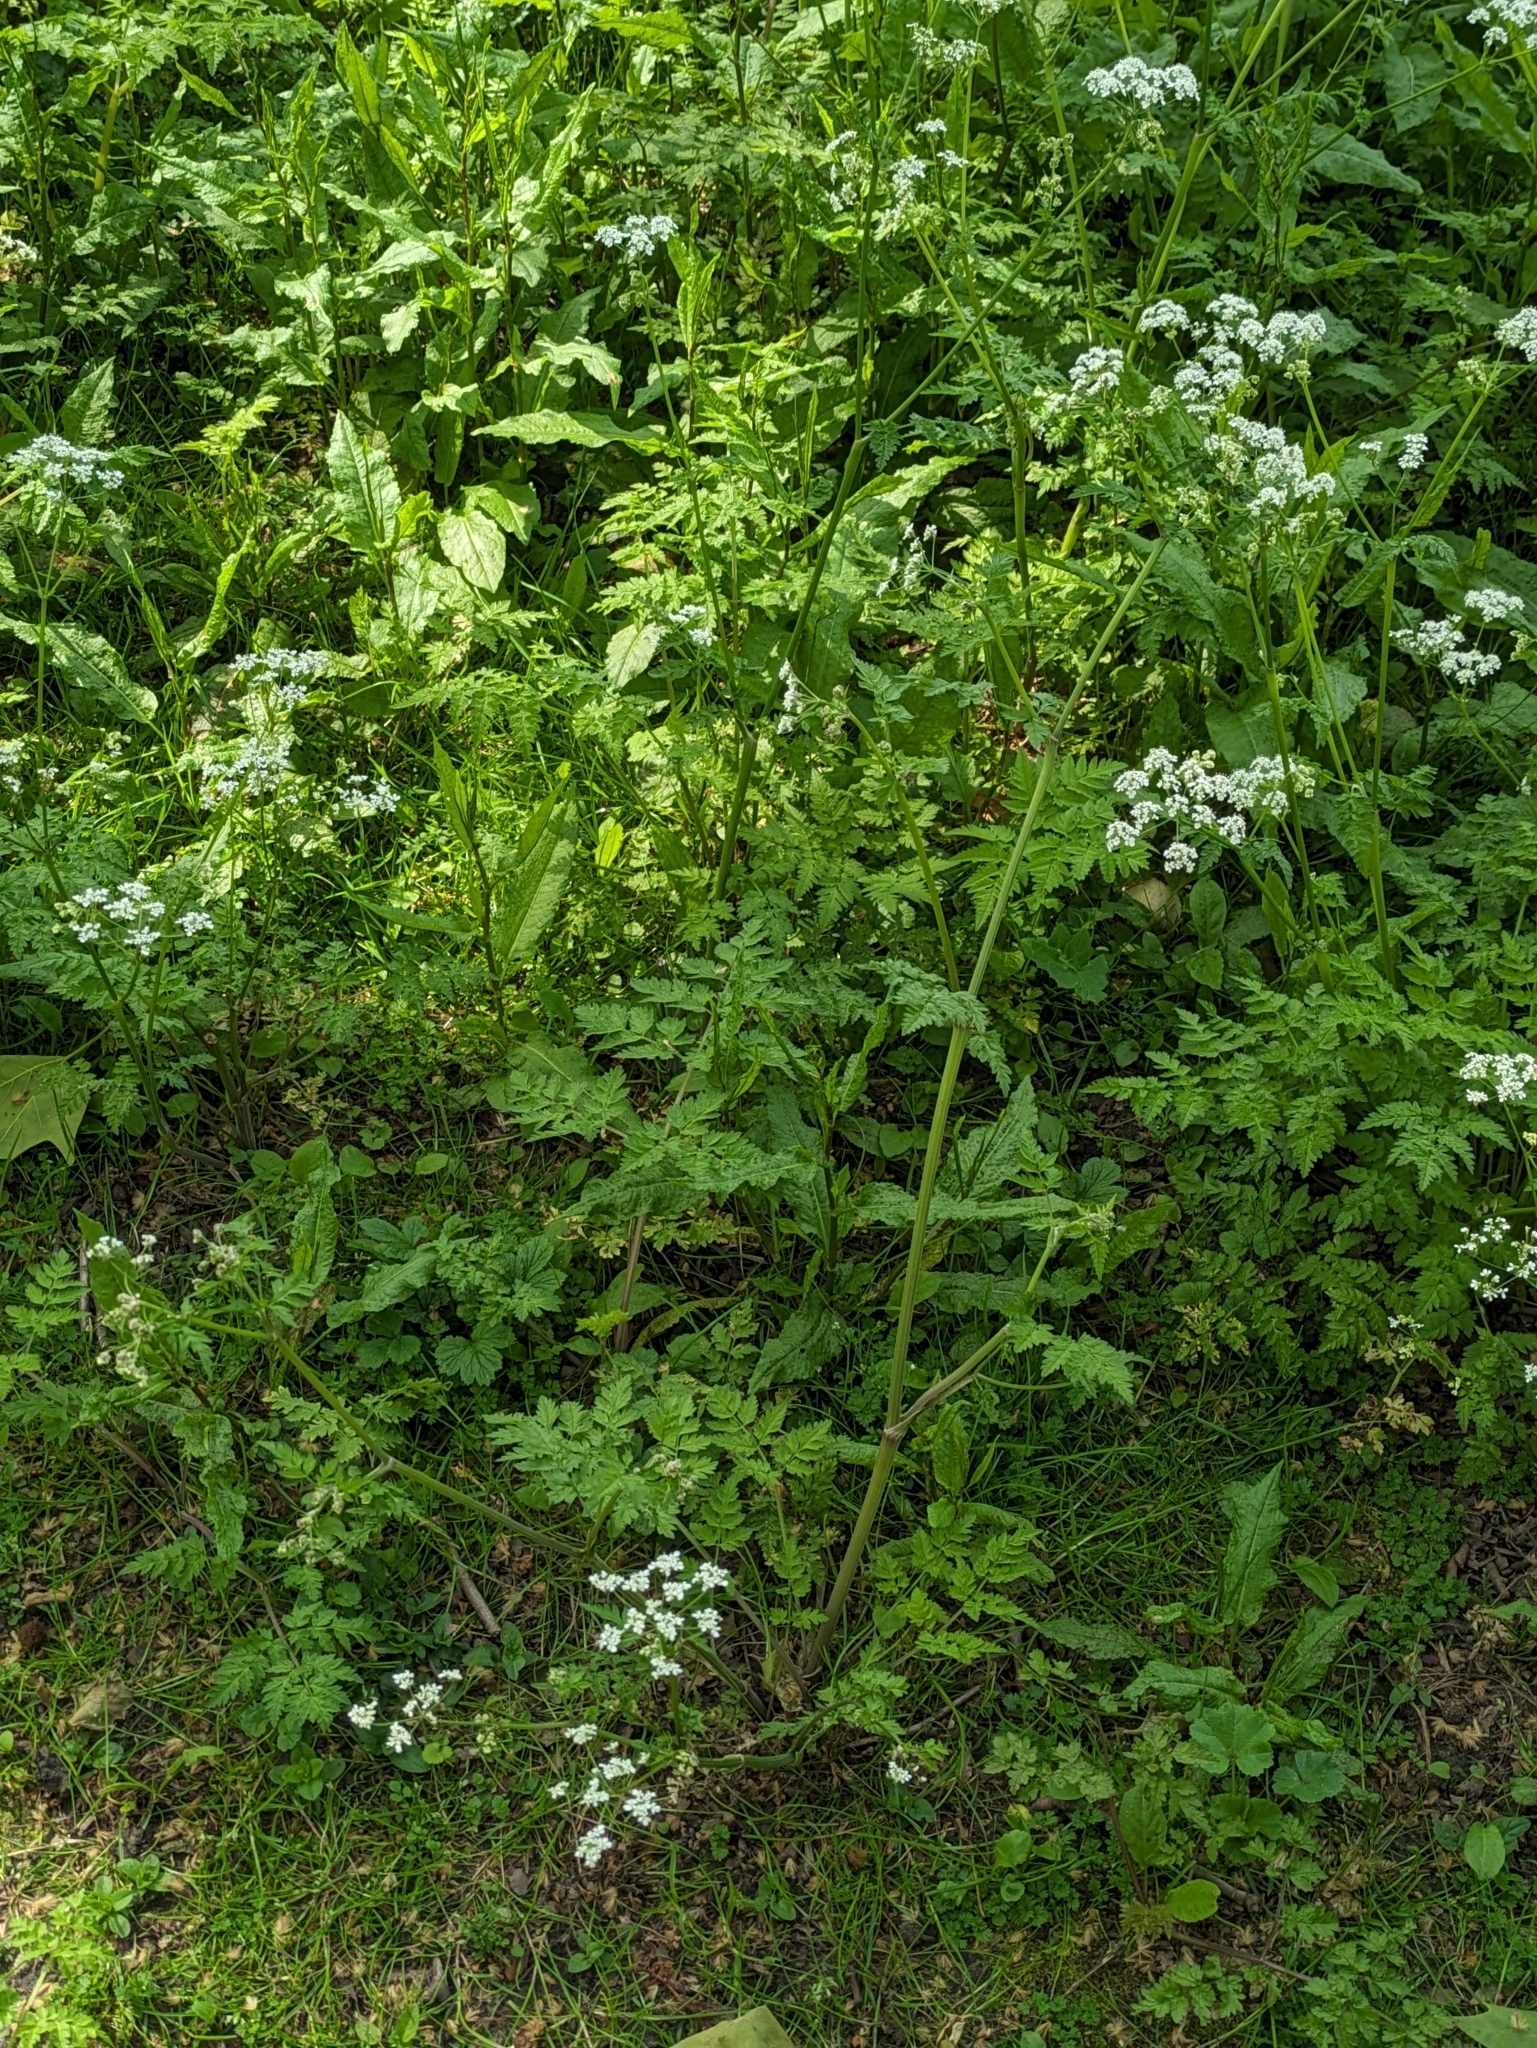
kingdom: Plantae
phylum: Tracheophyta
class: Magnoliopsida
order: Apiales
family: Apiaceae
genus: Anthriscus
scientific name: Anthriscus sylvestris
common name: Cow parsley
